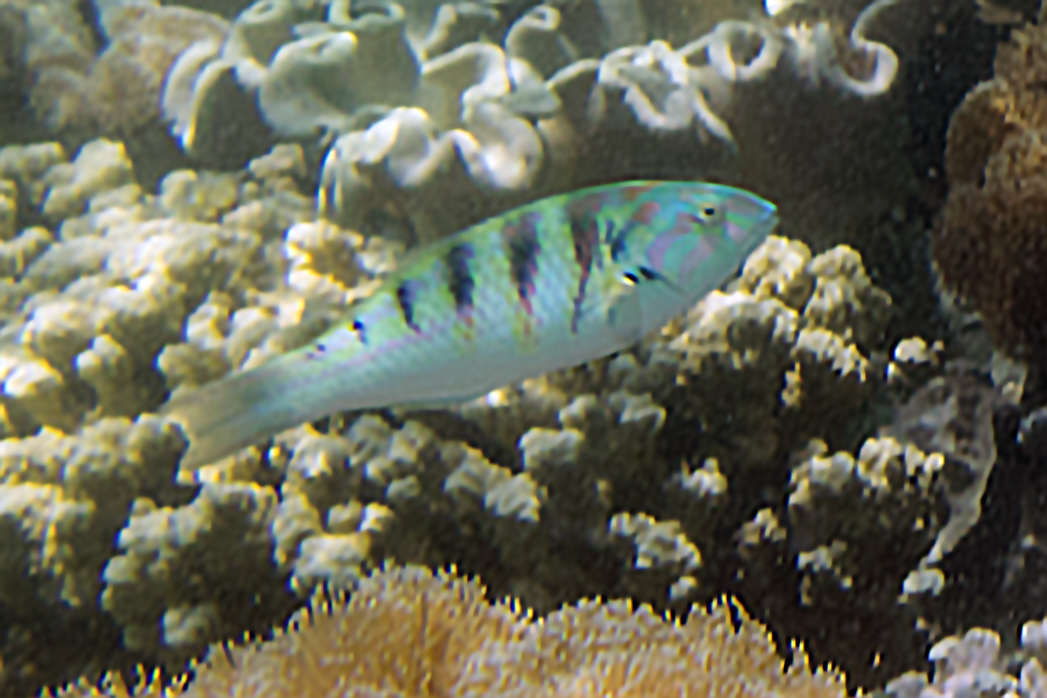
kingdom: Animalia
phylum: Chordata
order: Perciformes
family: Labridae
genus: Thalassoma
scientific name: Thalassoma hardwicke
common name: Sixbar wrasse
